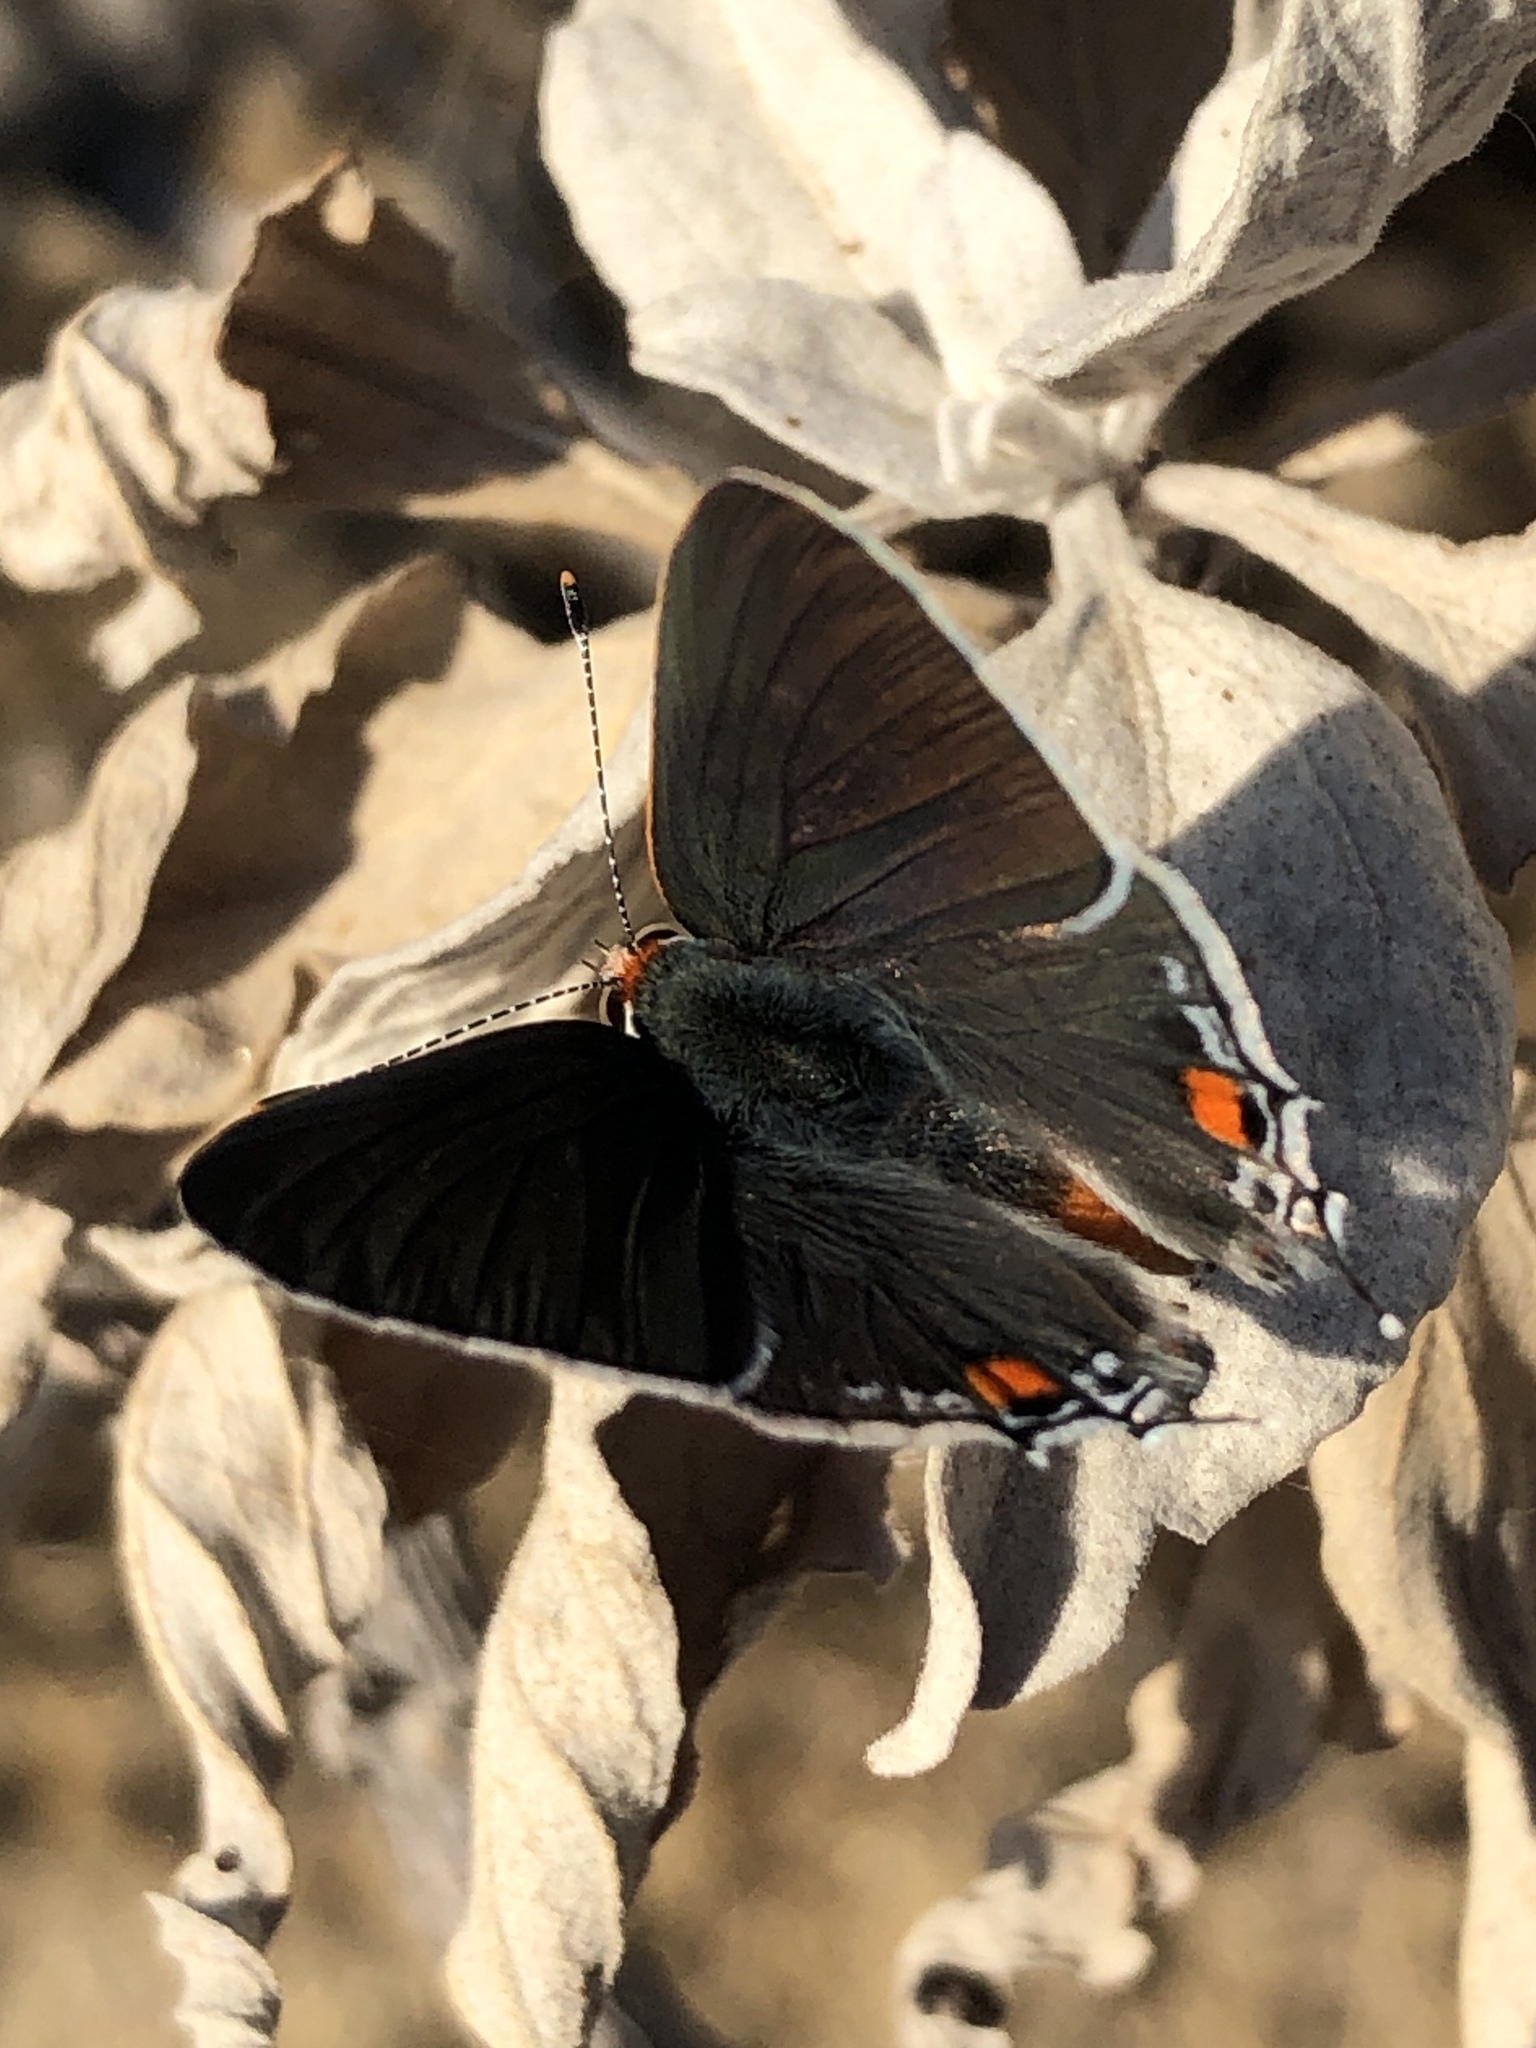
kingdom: Animalia
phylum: Arthropoda
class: Insecta
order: Lepidoptera
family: Lycaenidae
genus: Strymon
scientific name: Strymon melinus
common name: Gray hairstreak
